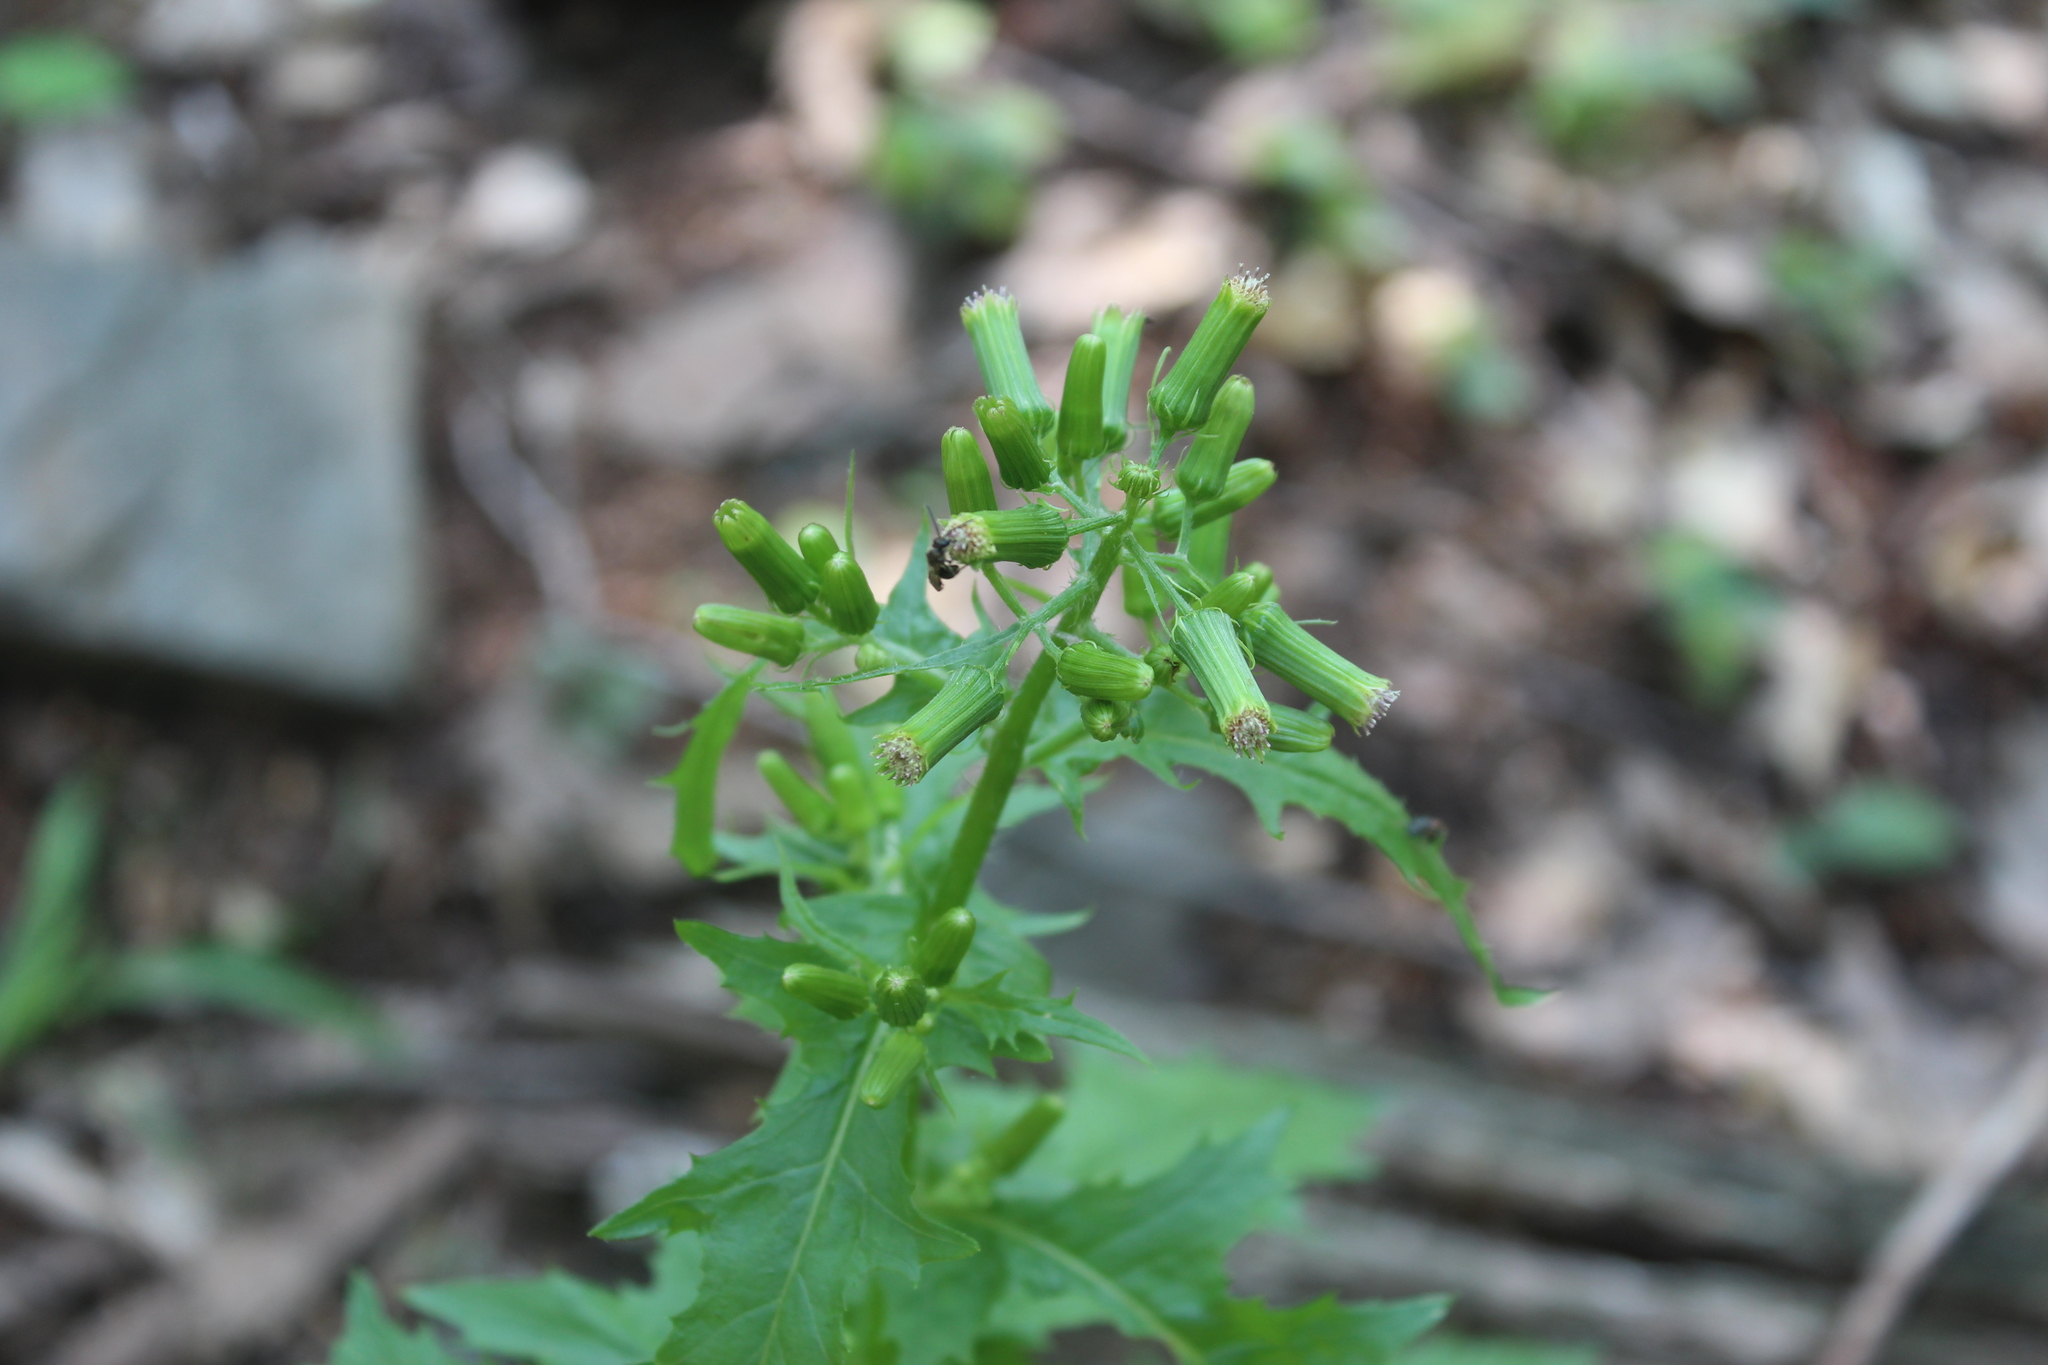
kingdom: Plantae
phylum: Tracheophyta
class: Magnoliopsida
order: Asterales
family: Asteraceae
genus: Erechtites
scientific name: Erechtites hieraciifolius
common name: American burnweed
